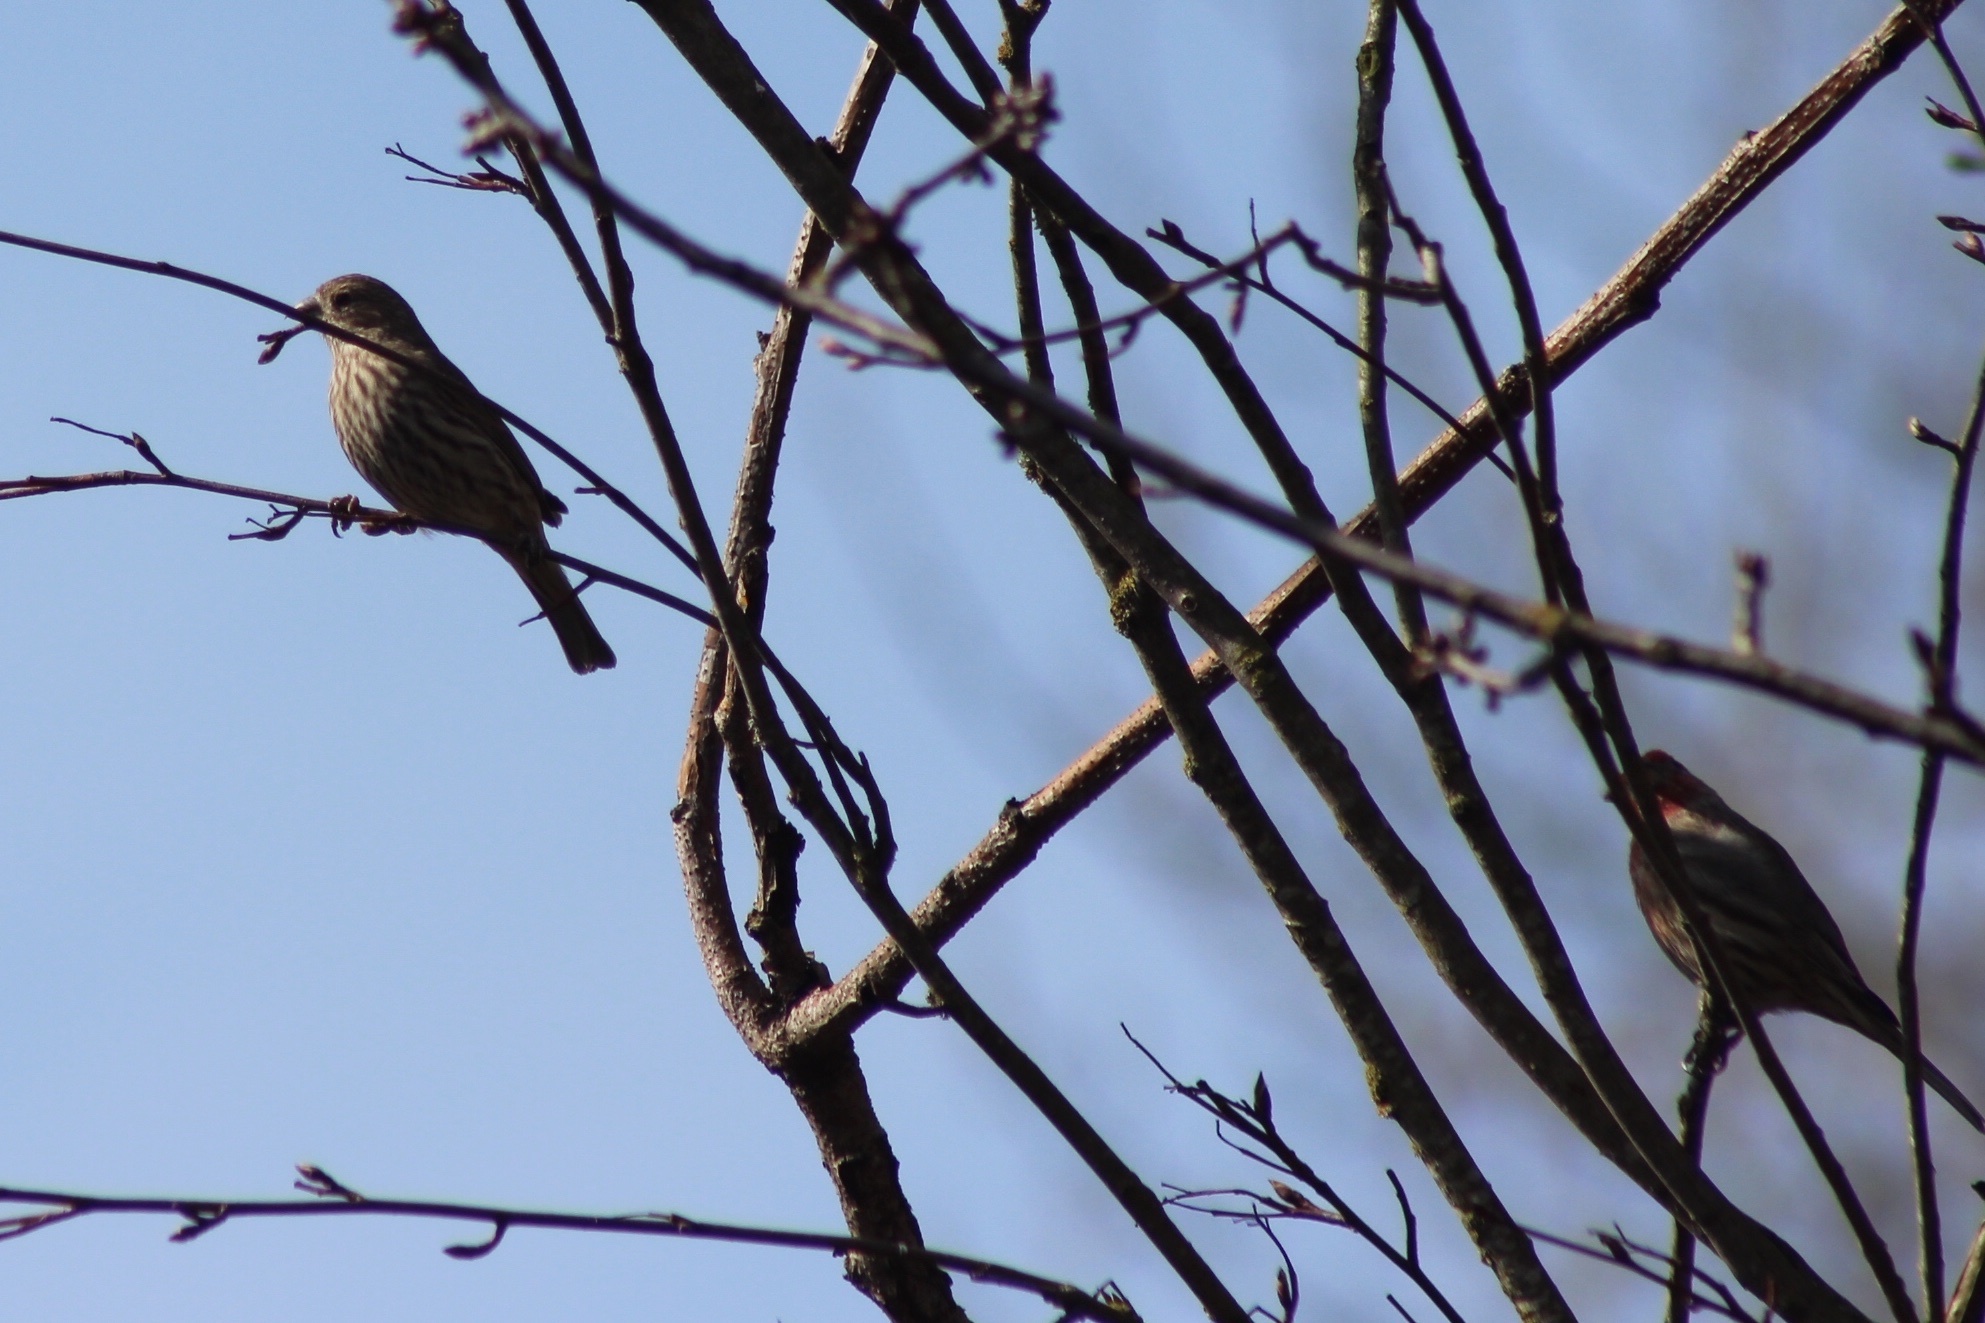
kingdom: Animalia
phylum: Chordata
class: Aves
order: Passeriformes
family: Fringillidae
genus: Haemorhous
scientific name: Haemorhous mexicanus
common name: House finch
